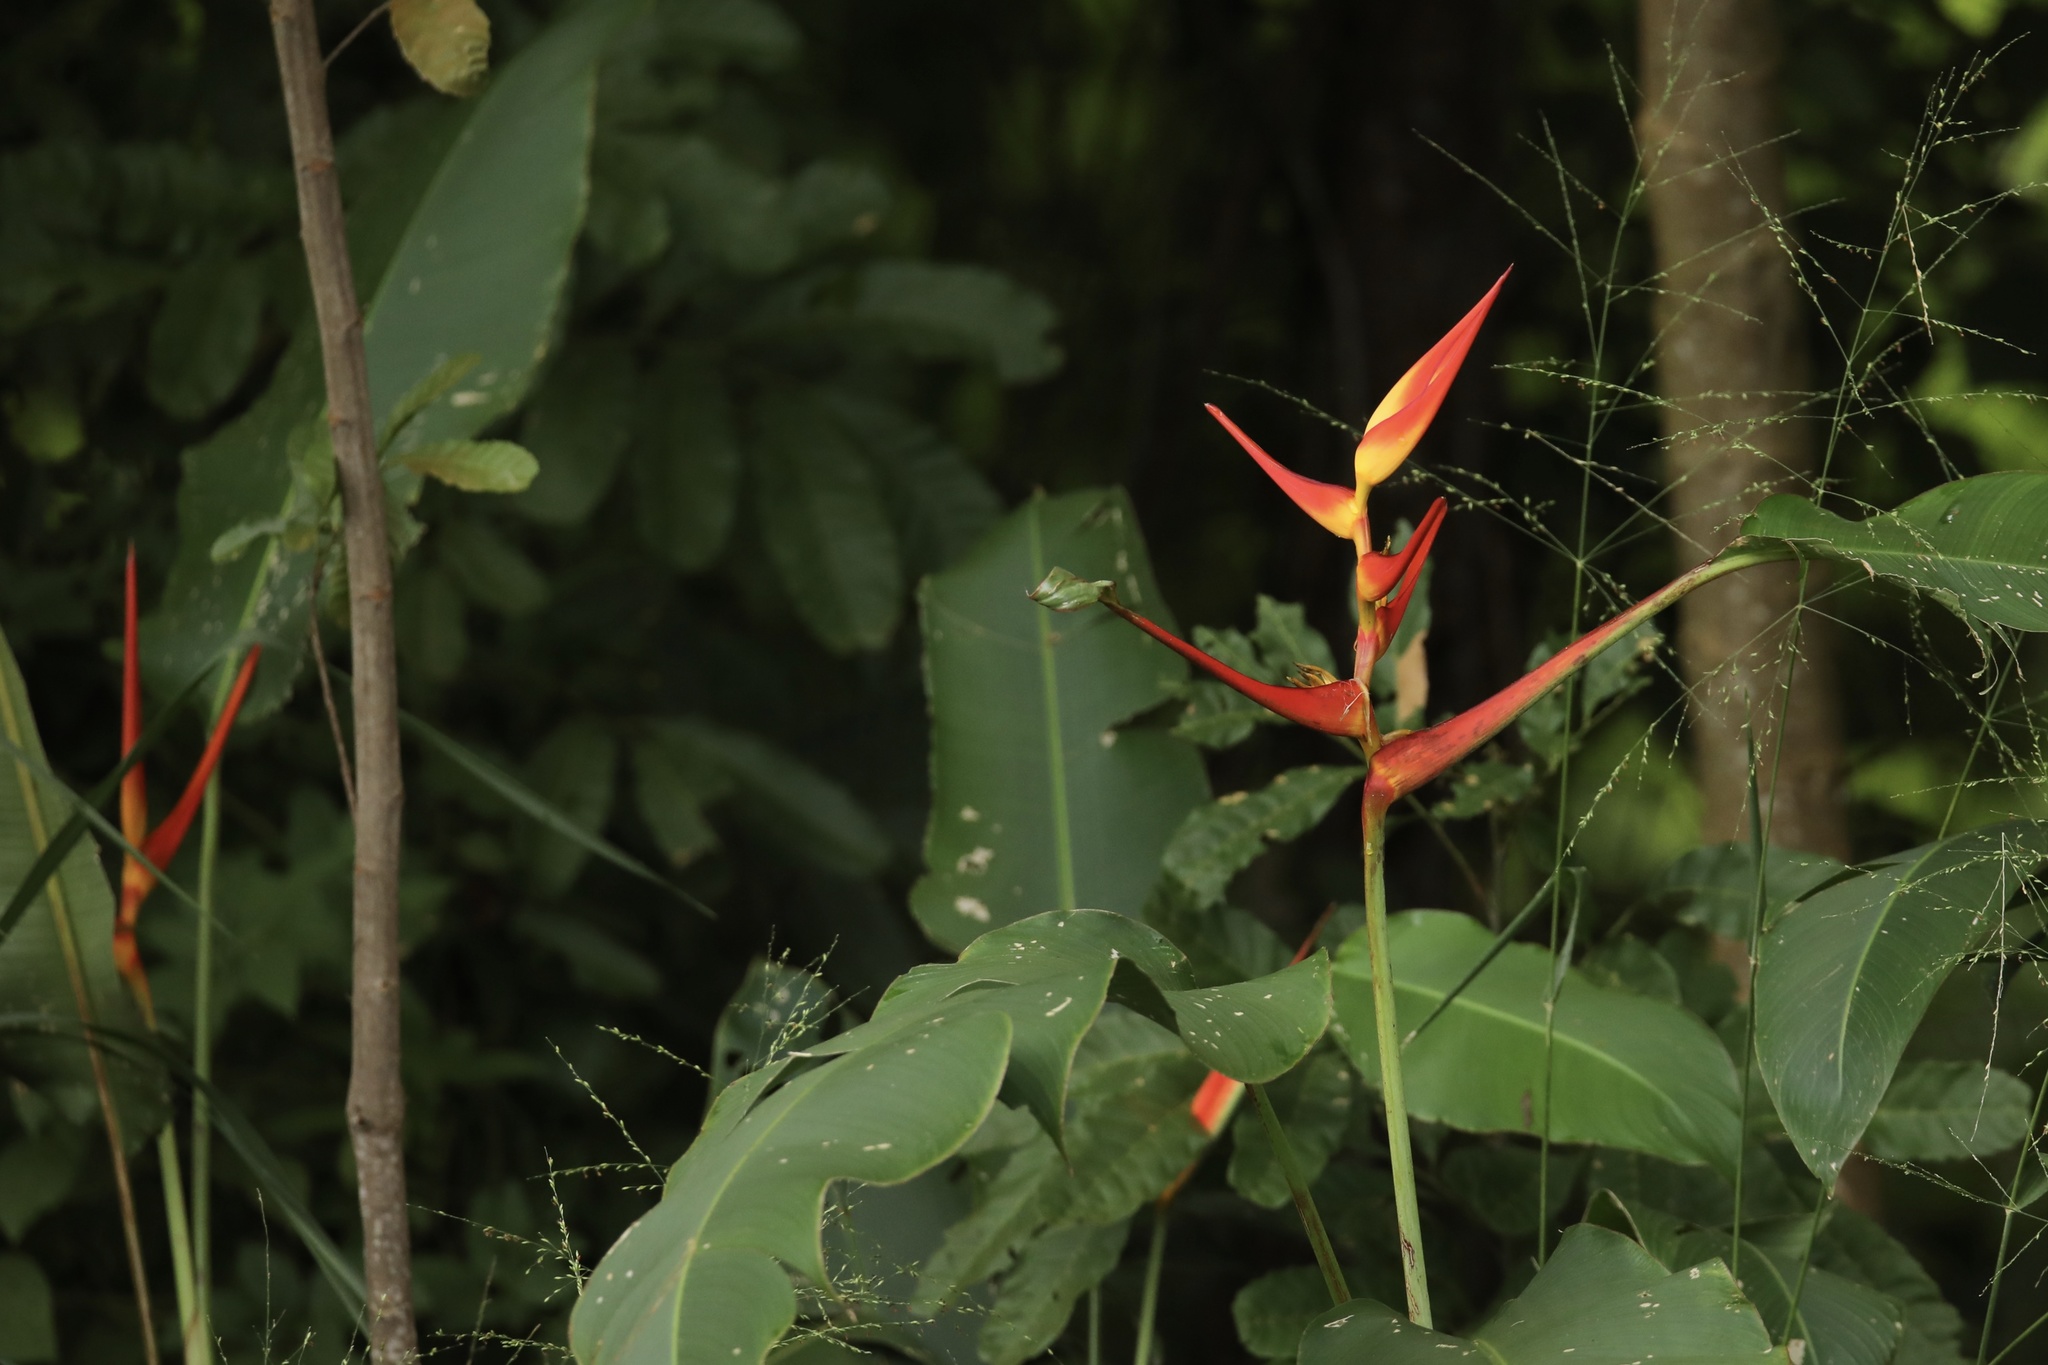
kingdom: Plantae
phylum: Tracheophyta
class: Liliopsida
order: Zingiberales
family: Heliconiaceae
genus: Heliconia
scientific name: Heliconia latispatha
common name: Expanded lobsterclaw
